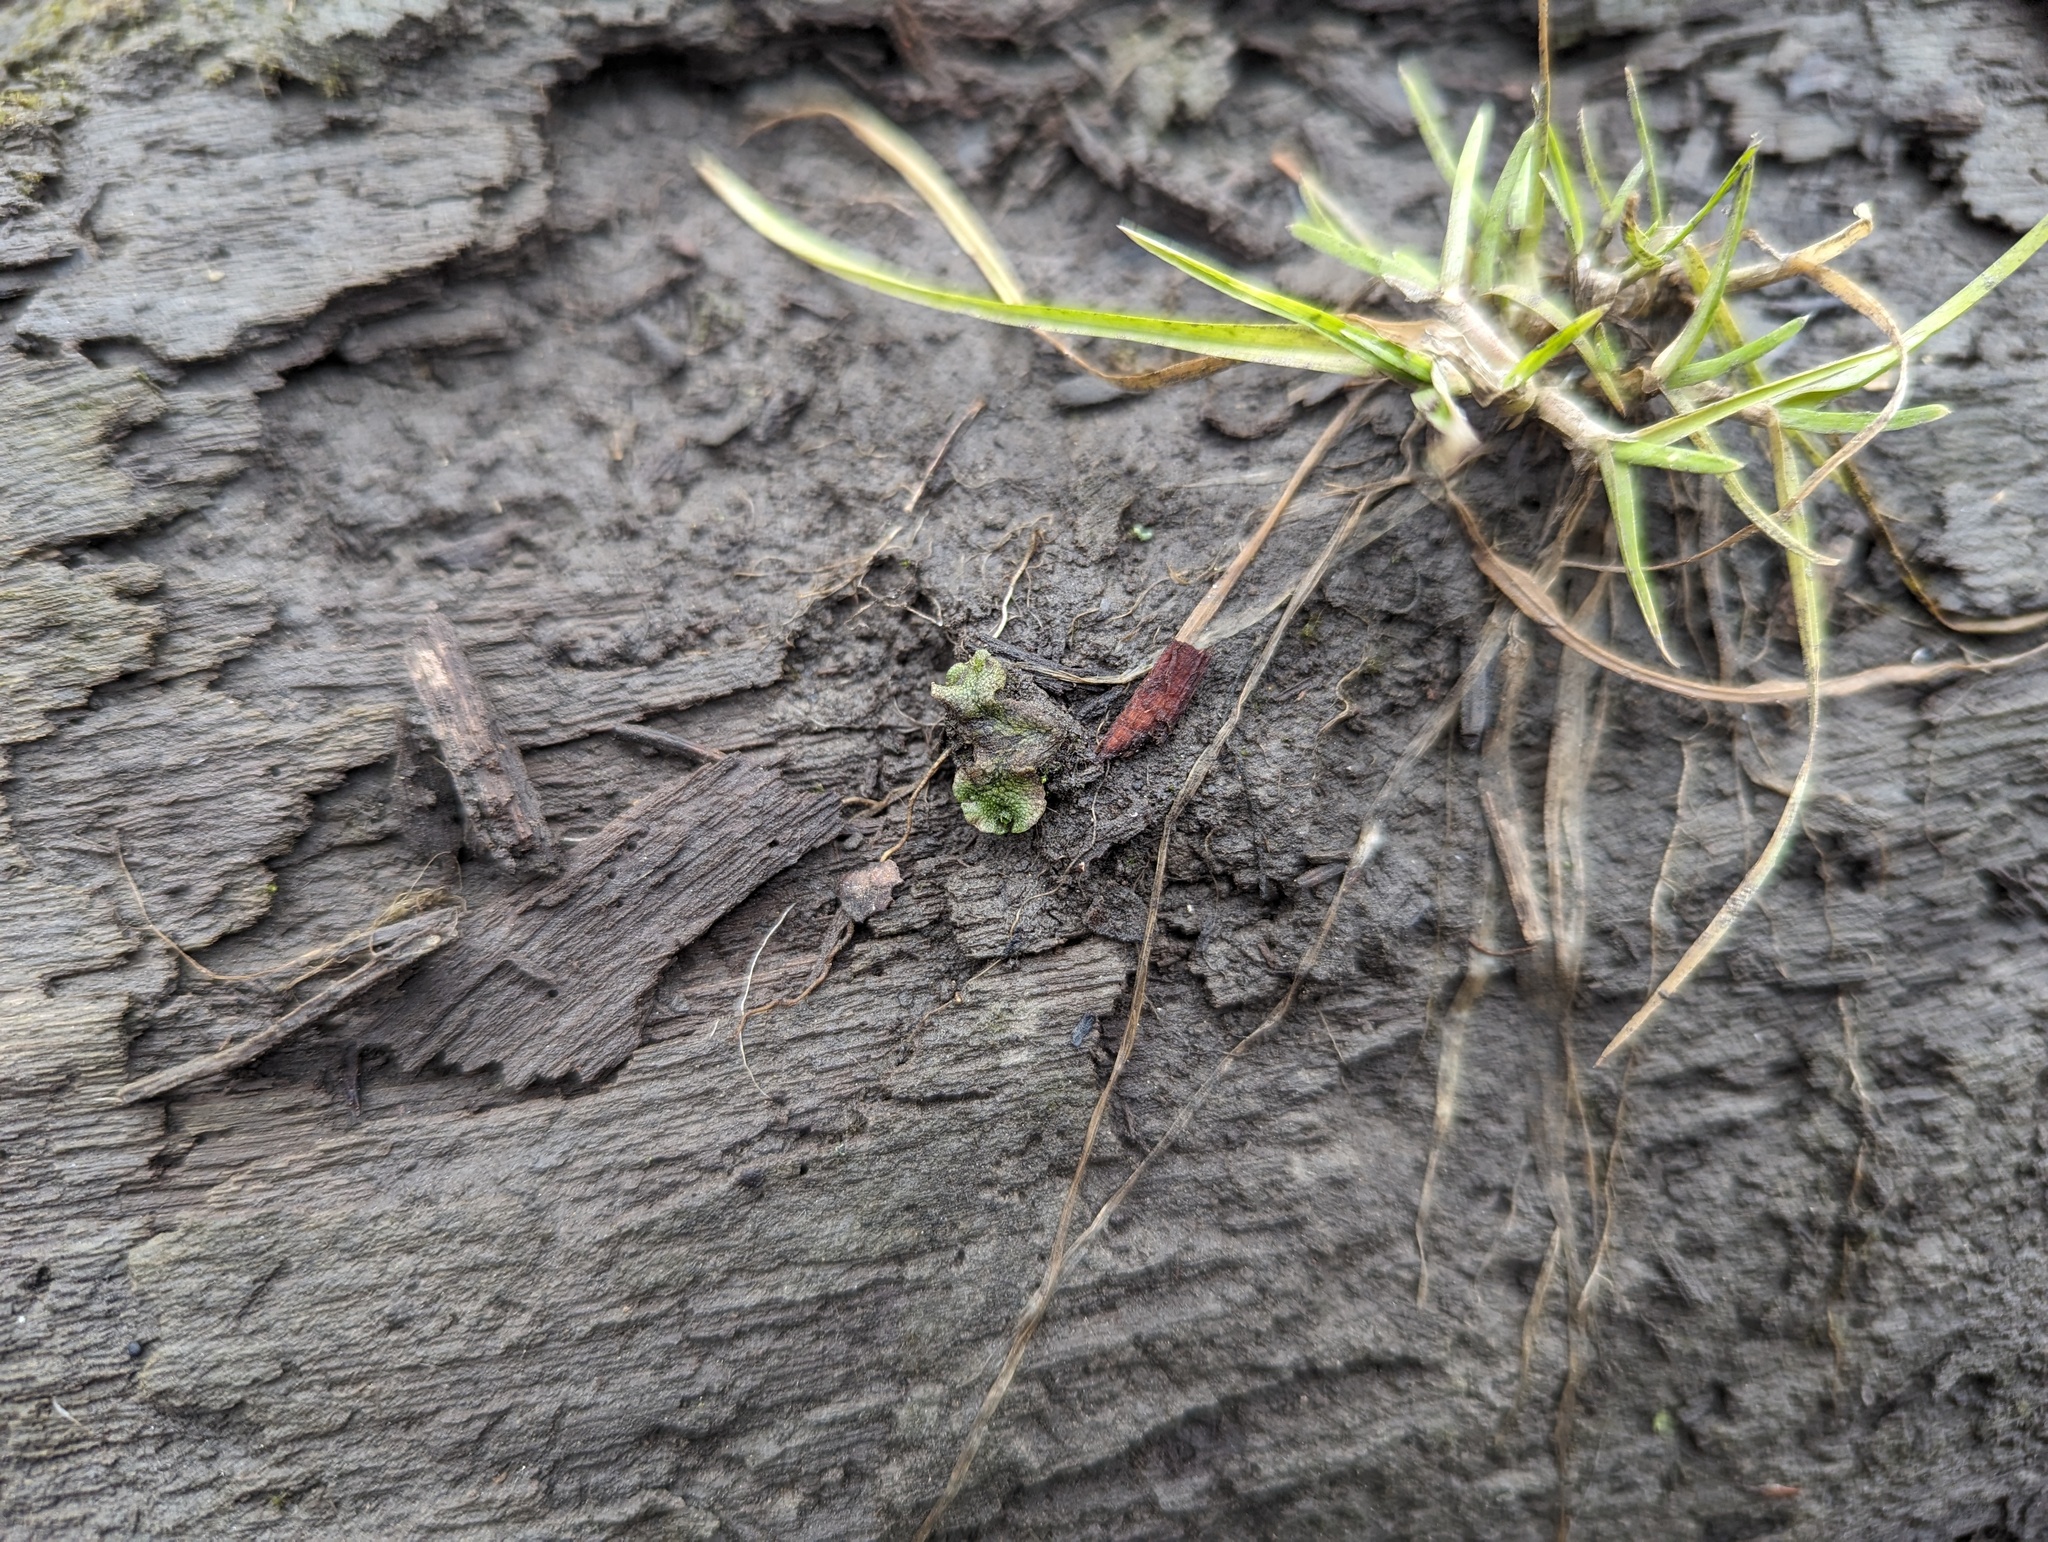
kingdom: Plantae
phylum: Marchantiophyta
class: Marchantiopsida
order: Marchantiales
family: Marchantiaceae
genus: Marchantia
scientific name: Marchantia polymorpha
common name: Common liverwort
